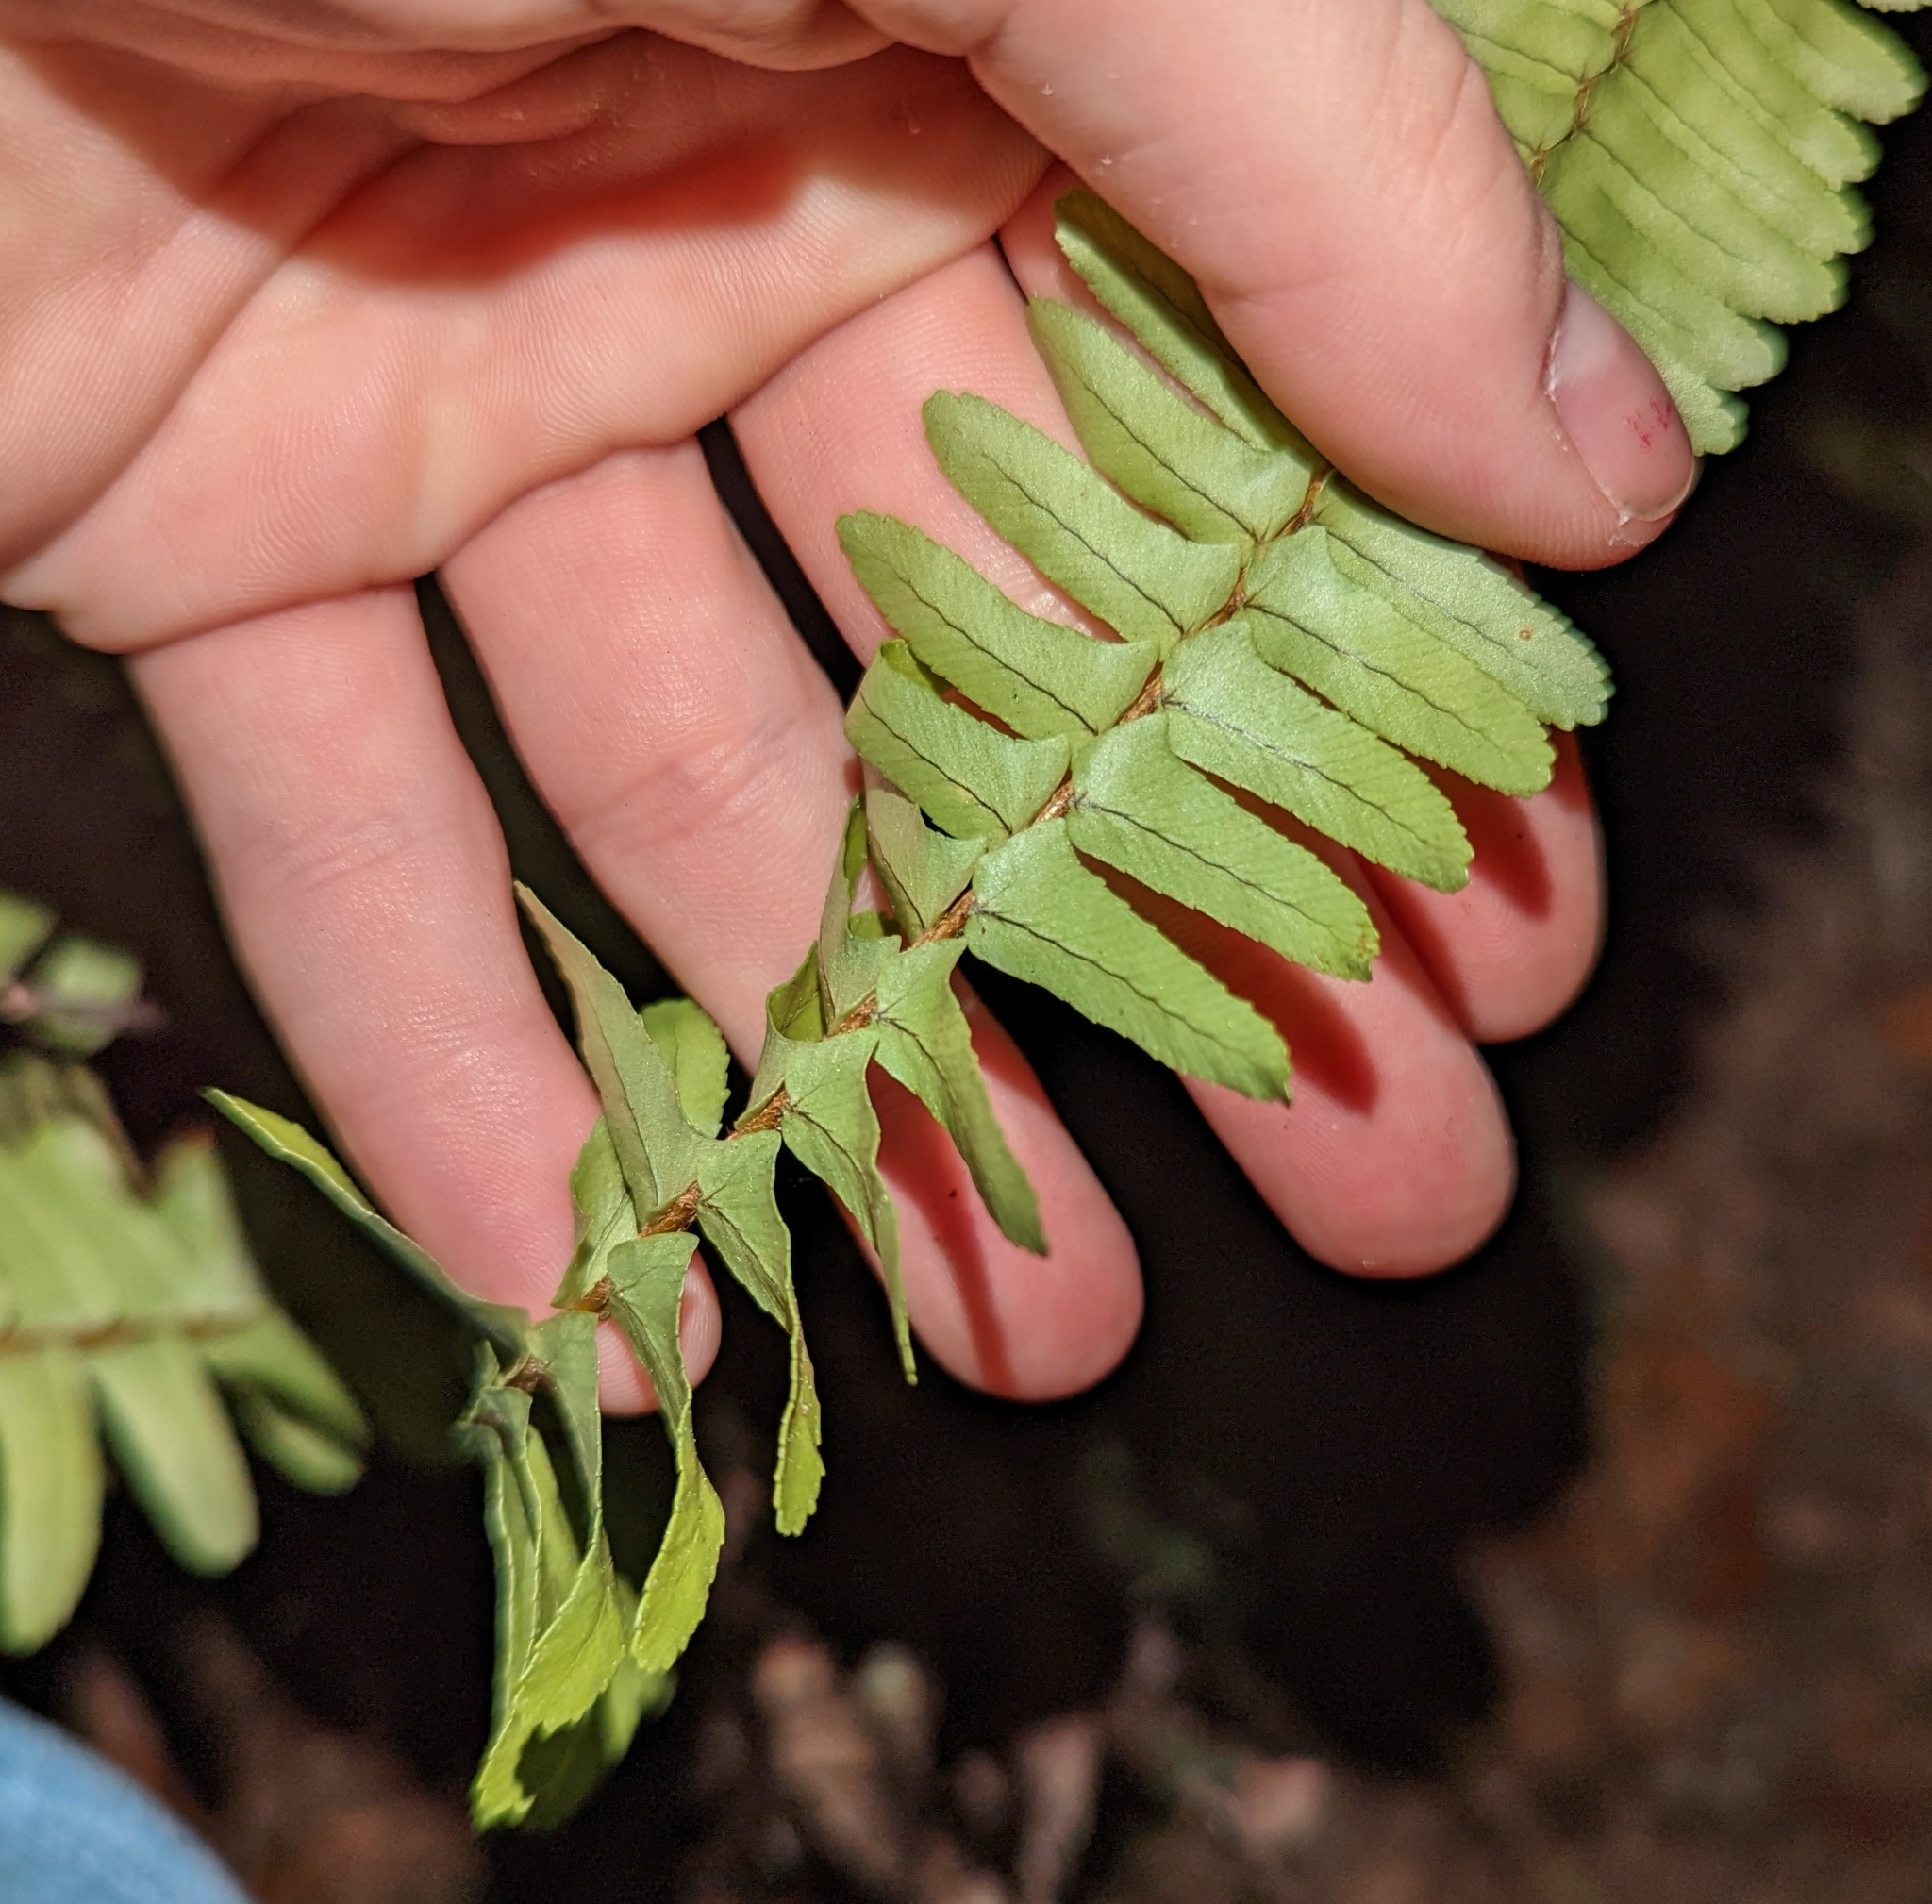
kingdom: Plantae
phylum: Tracheophyta
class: Polypodiopsida
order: Polypodiales
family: Nephrolepidaceae
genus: Nephrolepis
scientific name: Nephrolepis cordifolia
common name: Narrow swordfern
